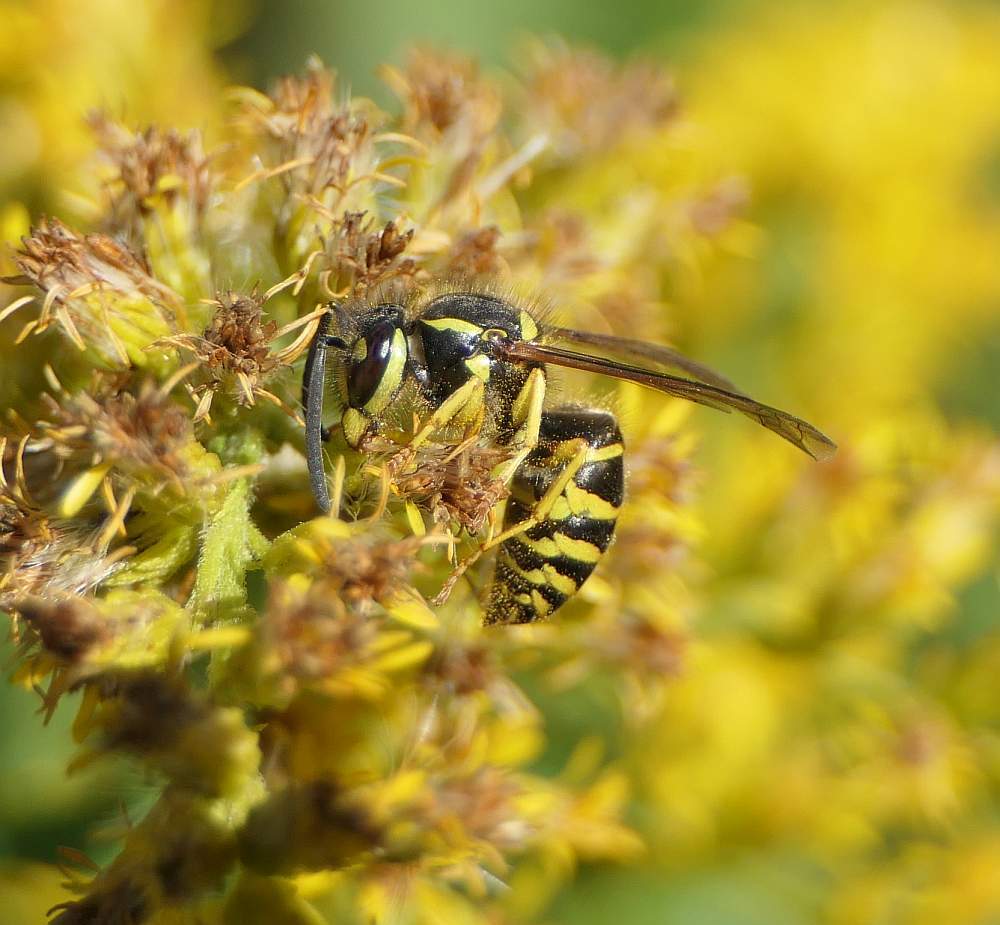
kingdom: Animalia
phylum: Arthropoda
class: Insecta
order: Hymenoptera
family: Vespidae
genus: Vespula
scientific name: Vespula
